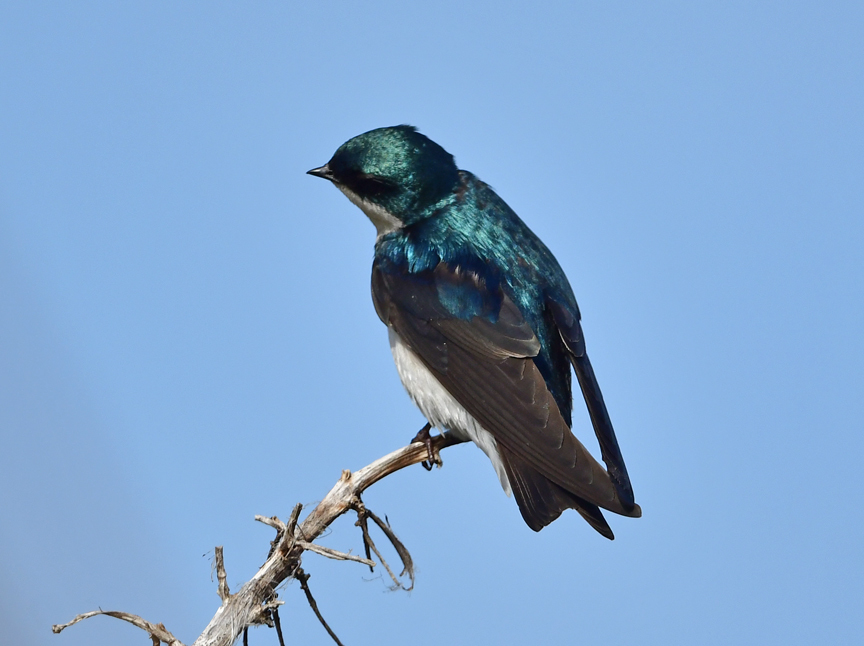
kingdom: Animalia
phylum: Chordata
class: Aves
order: Passeriformes
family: Hirundinidae
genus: Tachycineta
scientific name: Tachycineta bicolor
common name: Tree swallow
